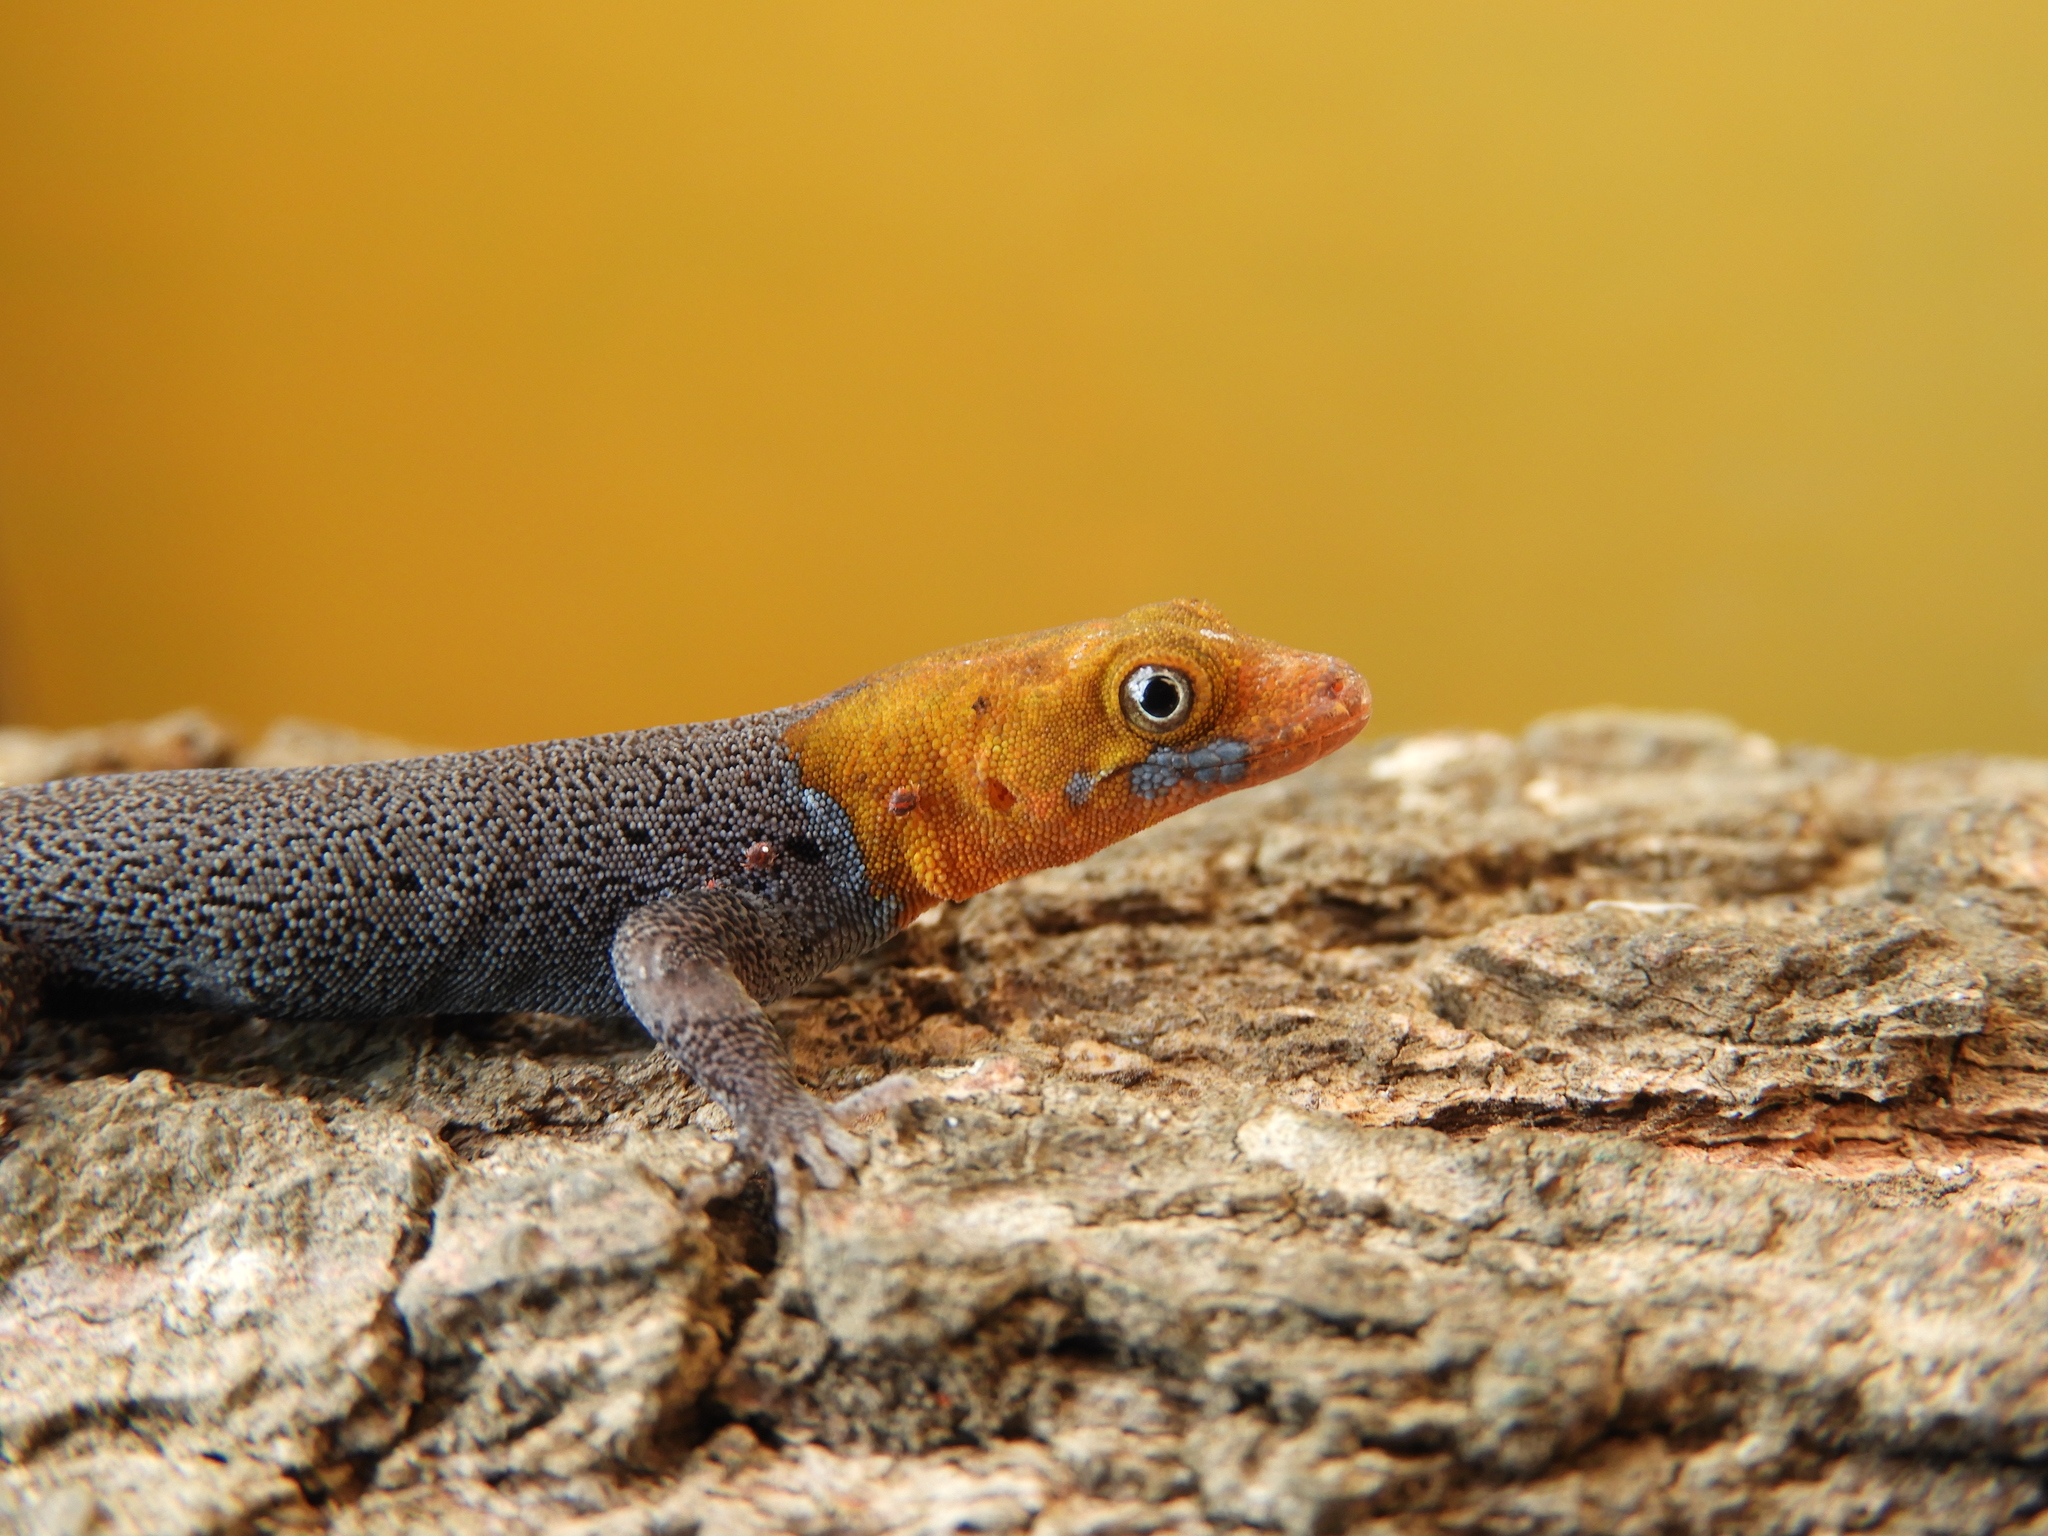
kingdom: Animalia
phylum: Chordata
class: Squamata
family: Sphaerodactylidae
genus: Gonatodes
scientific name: Gonatodes albogularis
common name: Yellow-headed gecko
